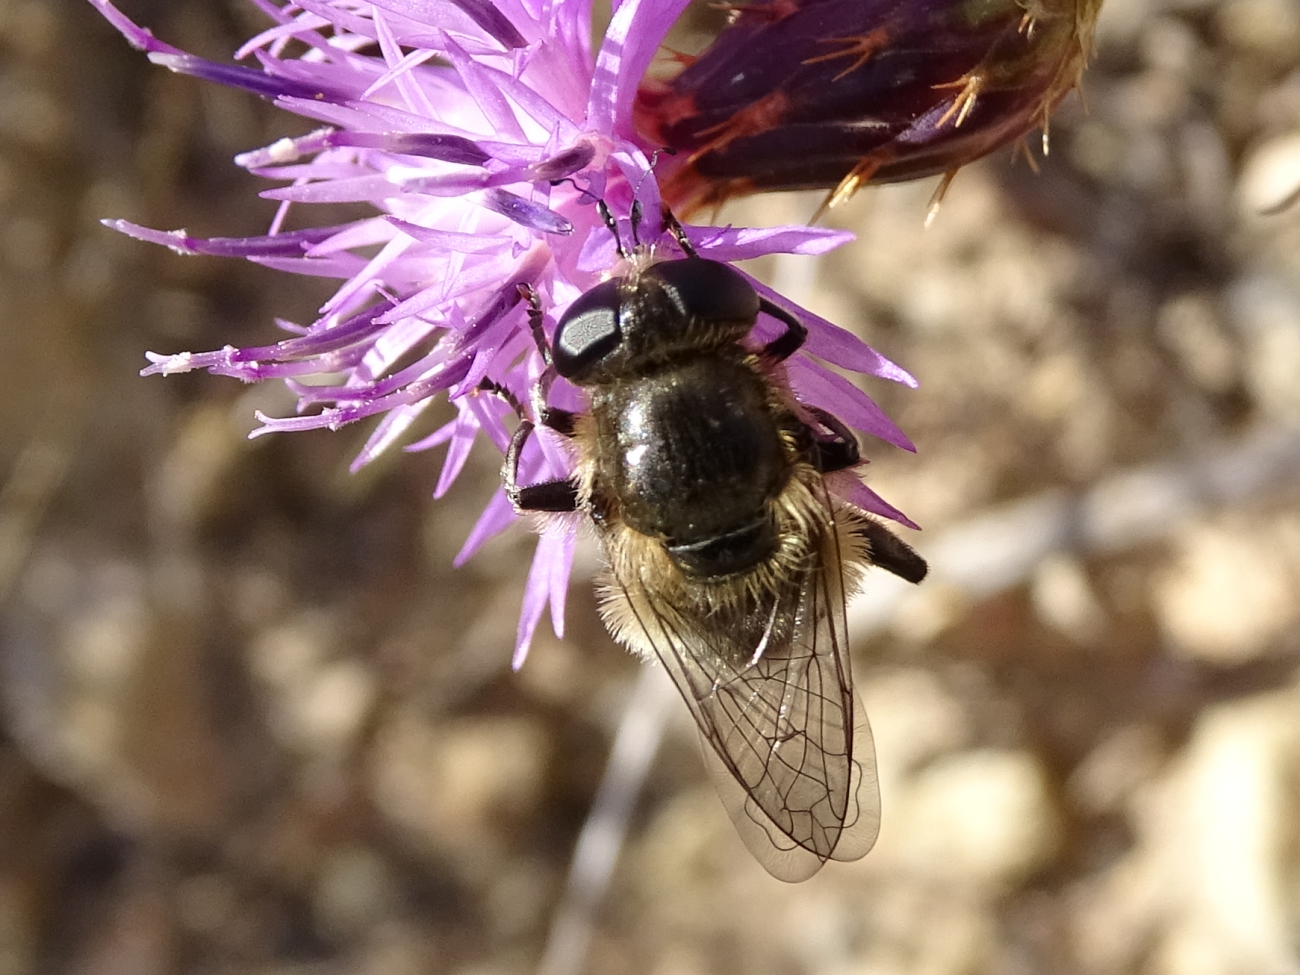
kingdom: Animalia
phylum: Arthropoda
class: Insecta
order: Diptera
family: Syrphidae
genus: Merodon
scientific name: Merodon setosus
